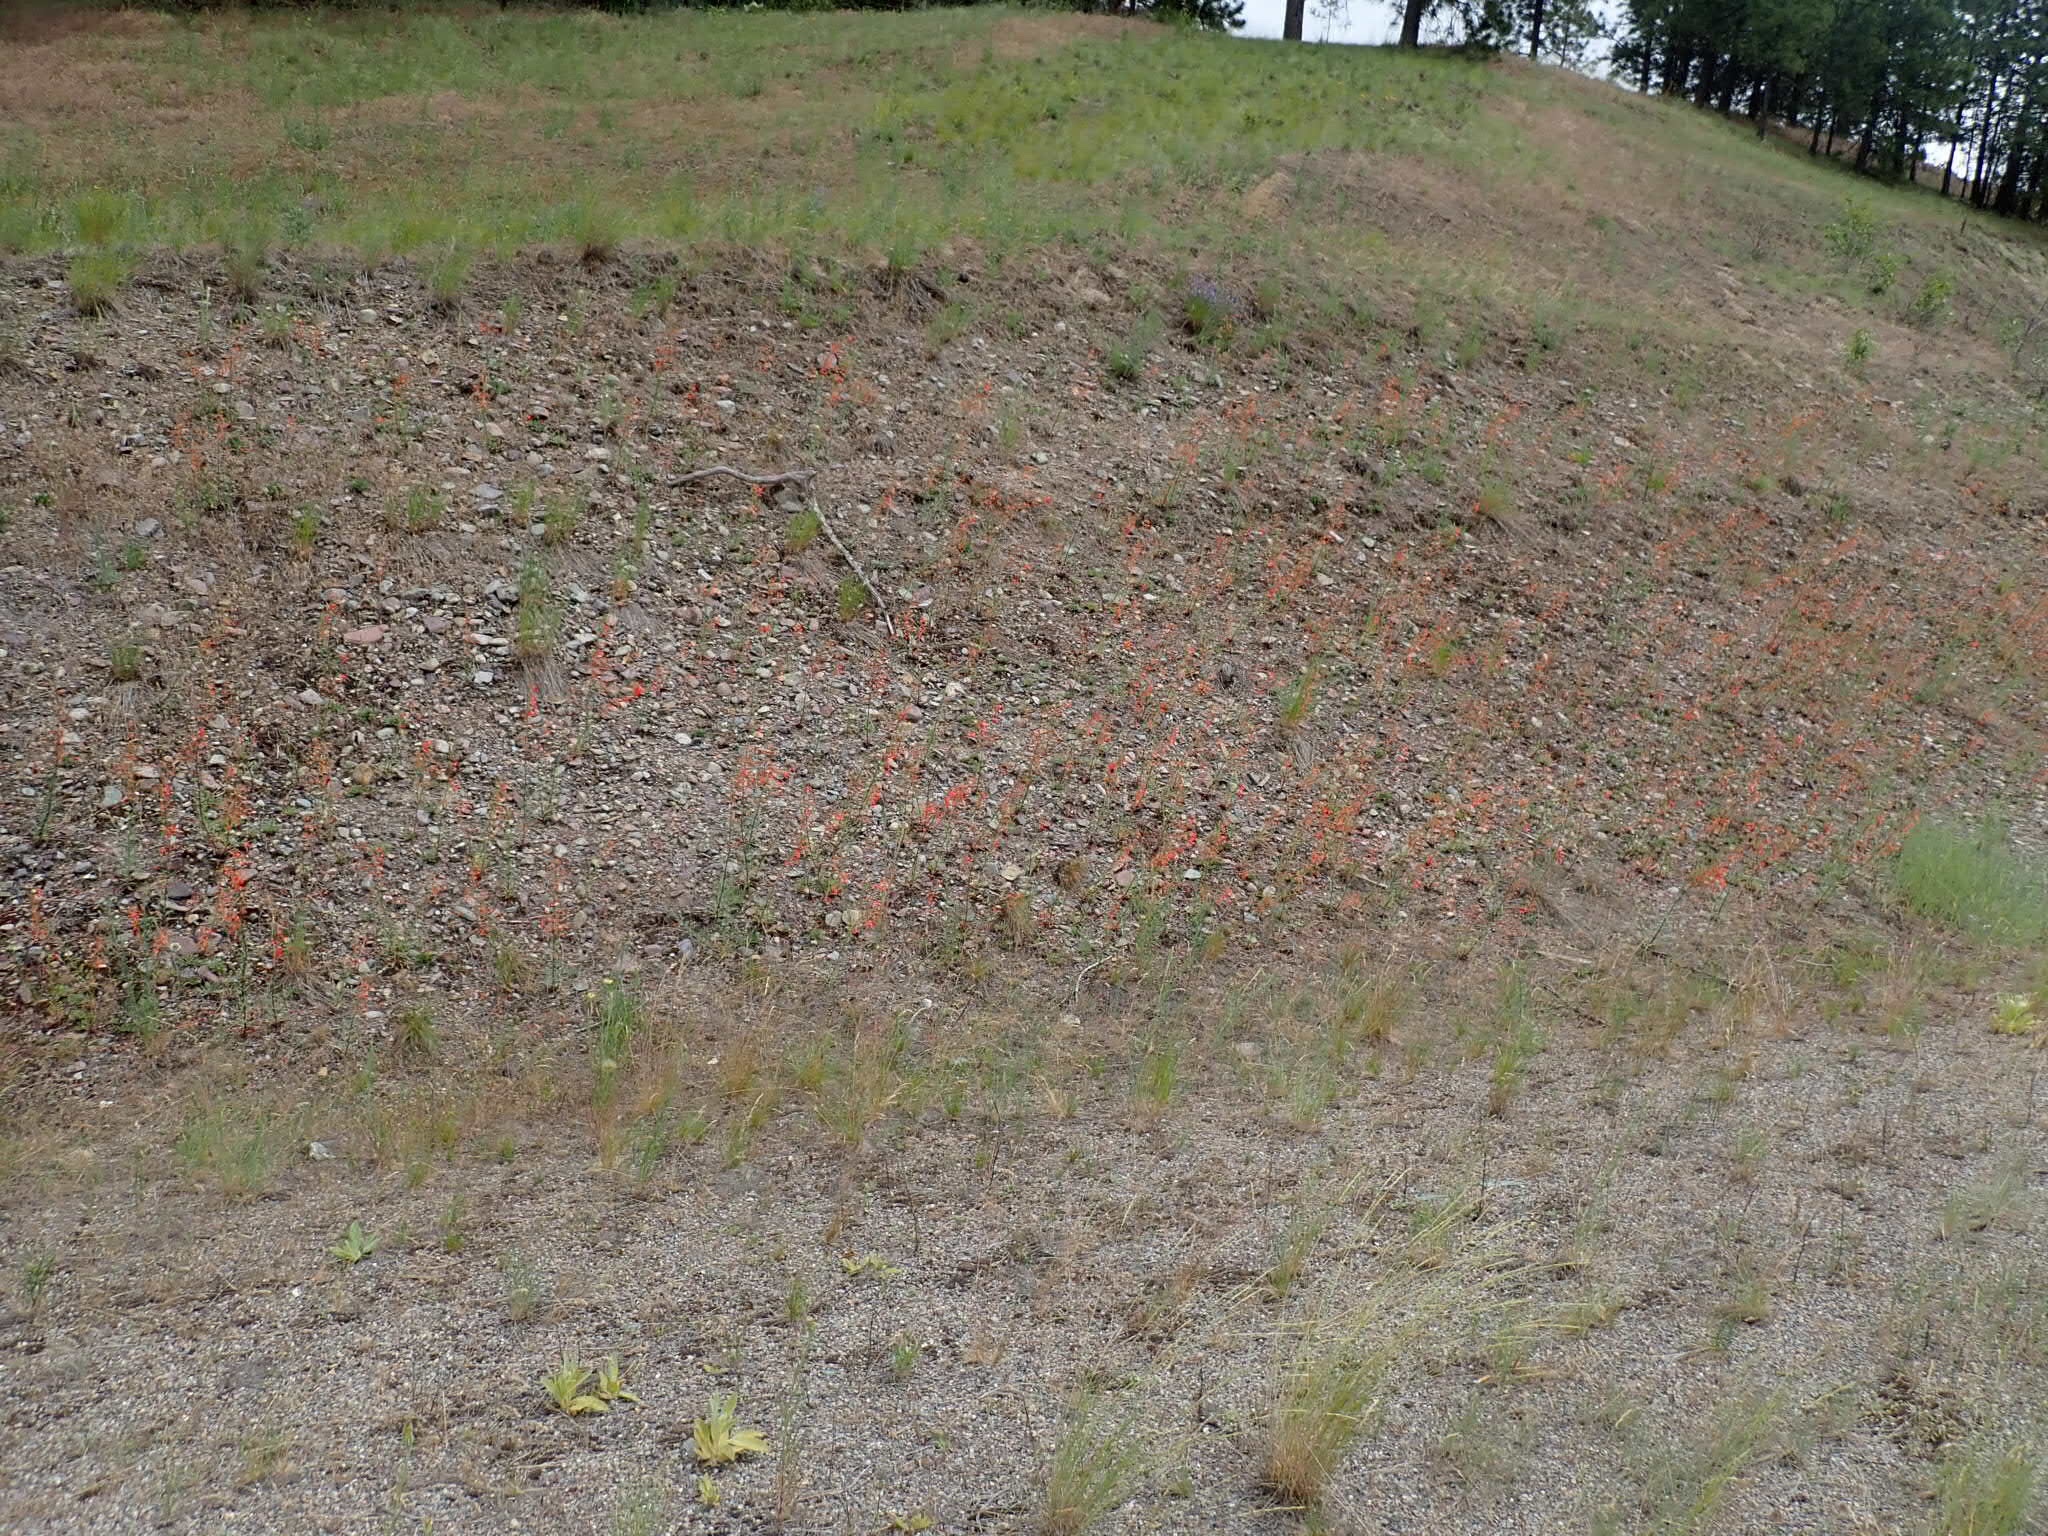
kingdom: Plantae
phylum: Tracheophyta
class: Magnoliopsida
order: Ericales
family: Polemoniaceae
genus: Ipomopsis
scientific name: Ipomopsis aggregata
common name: Scarlet gilia
